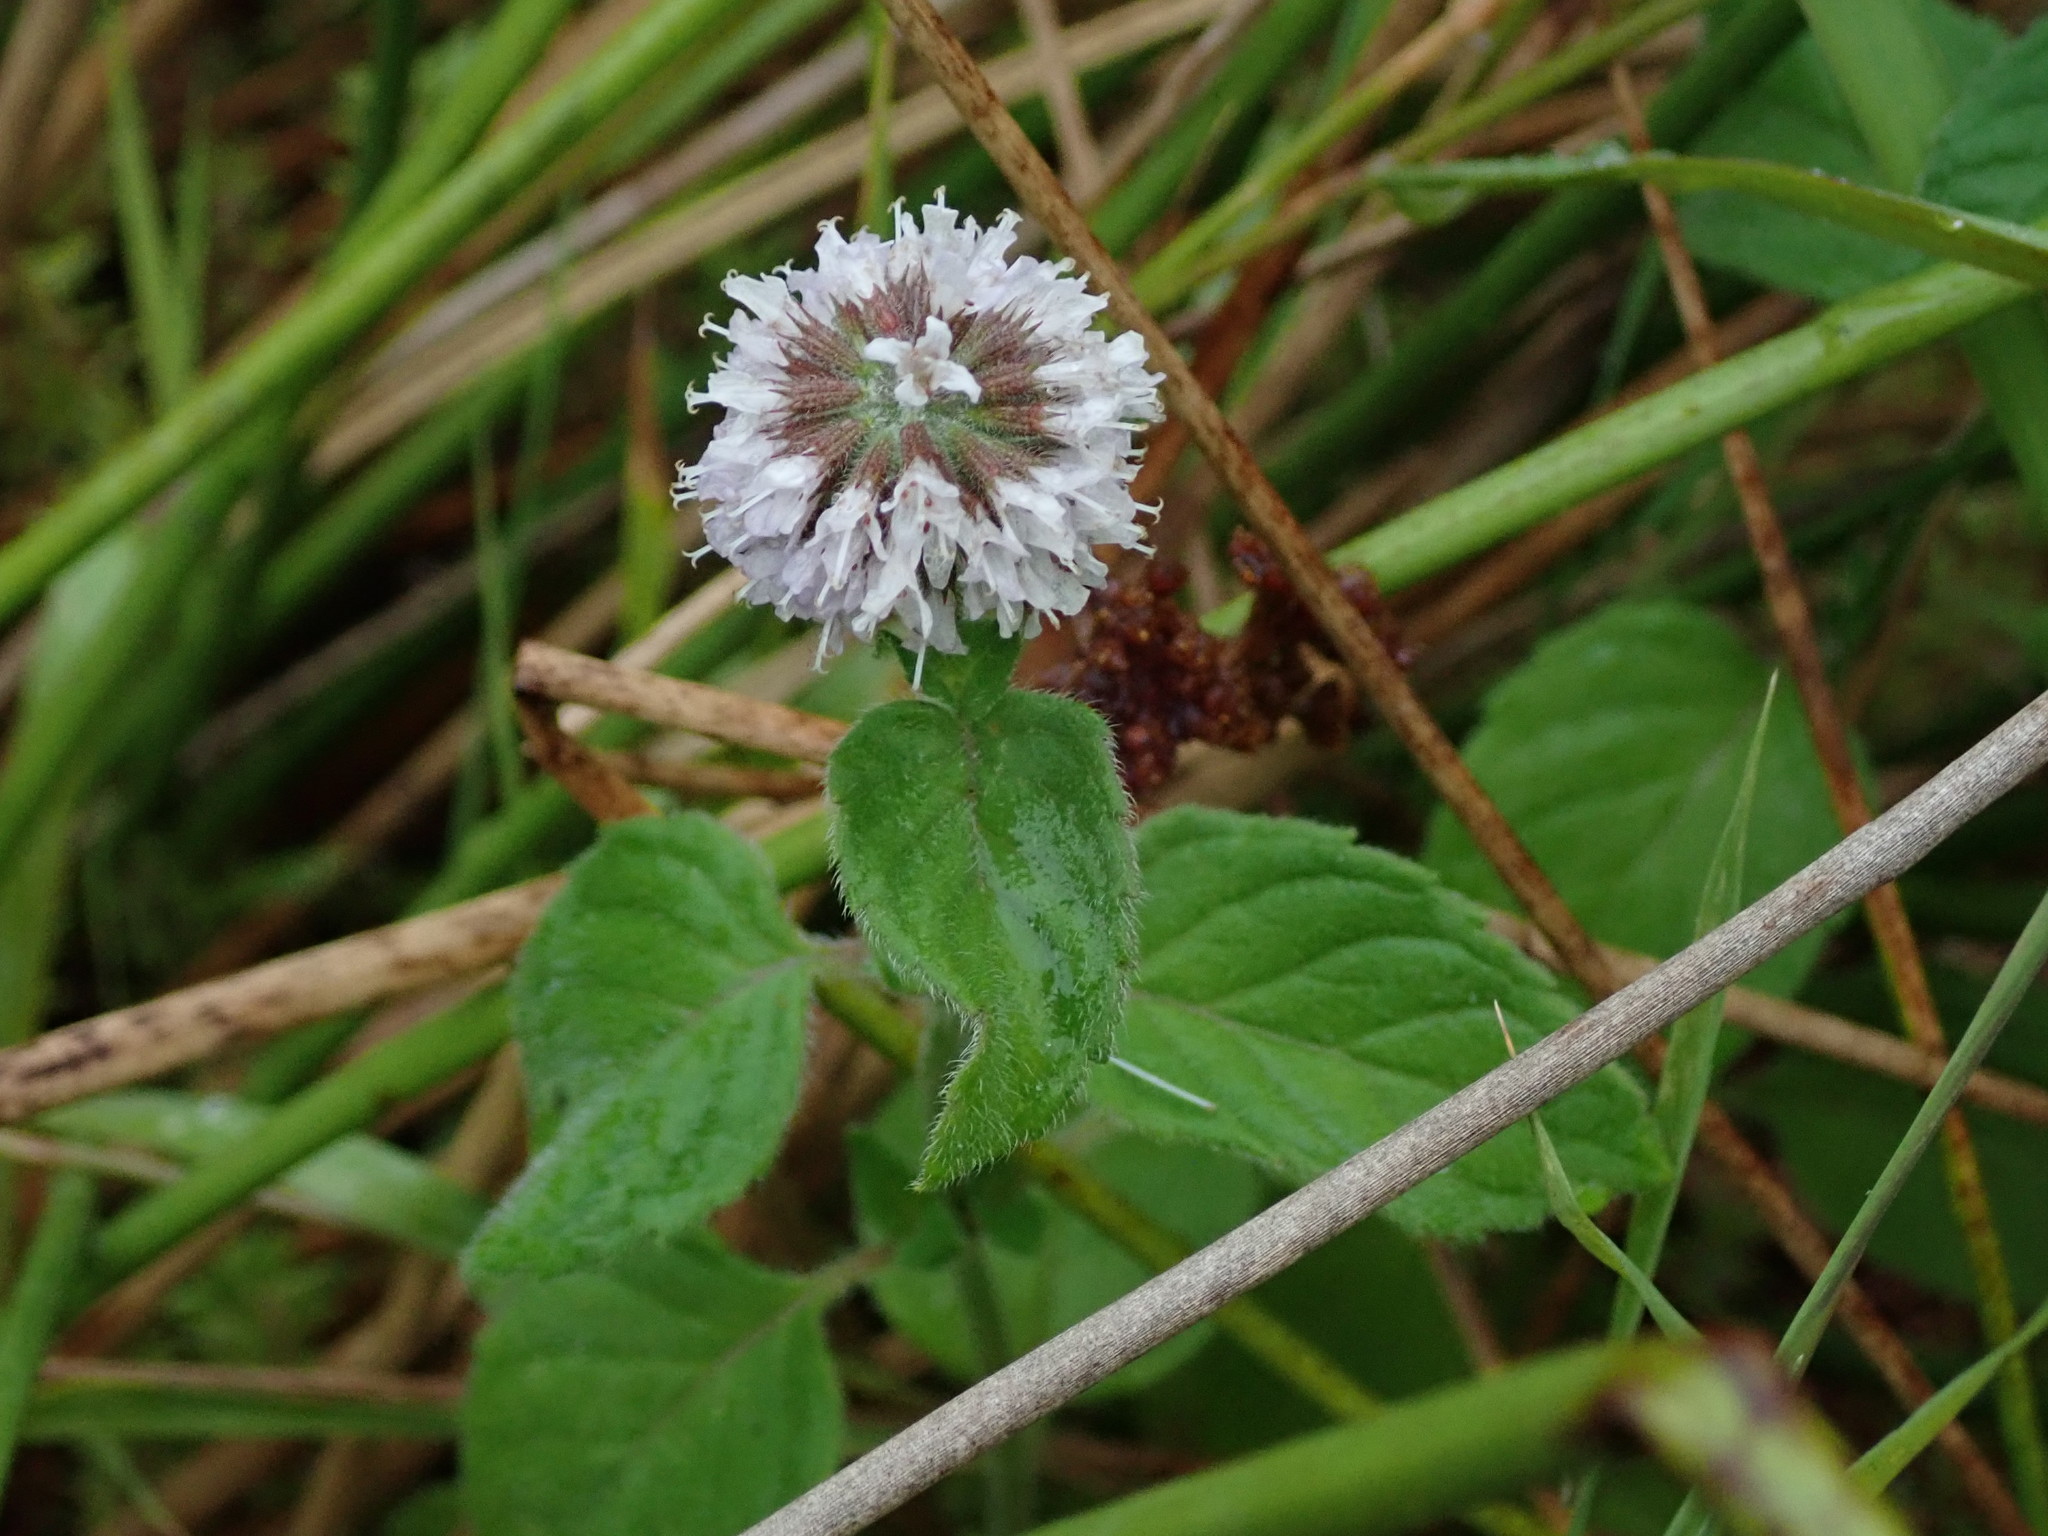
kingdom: Plantae
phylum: Tracheophyta
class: Magnoliopsida
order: Lamiales
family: Lamiaceae
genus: Mentha
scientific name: Mentha aquatica
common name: Water mint
